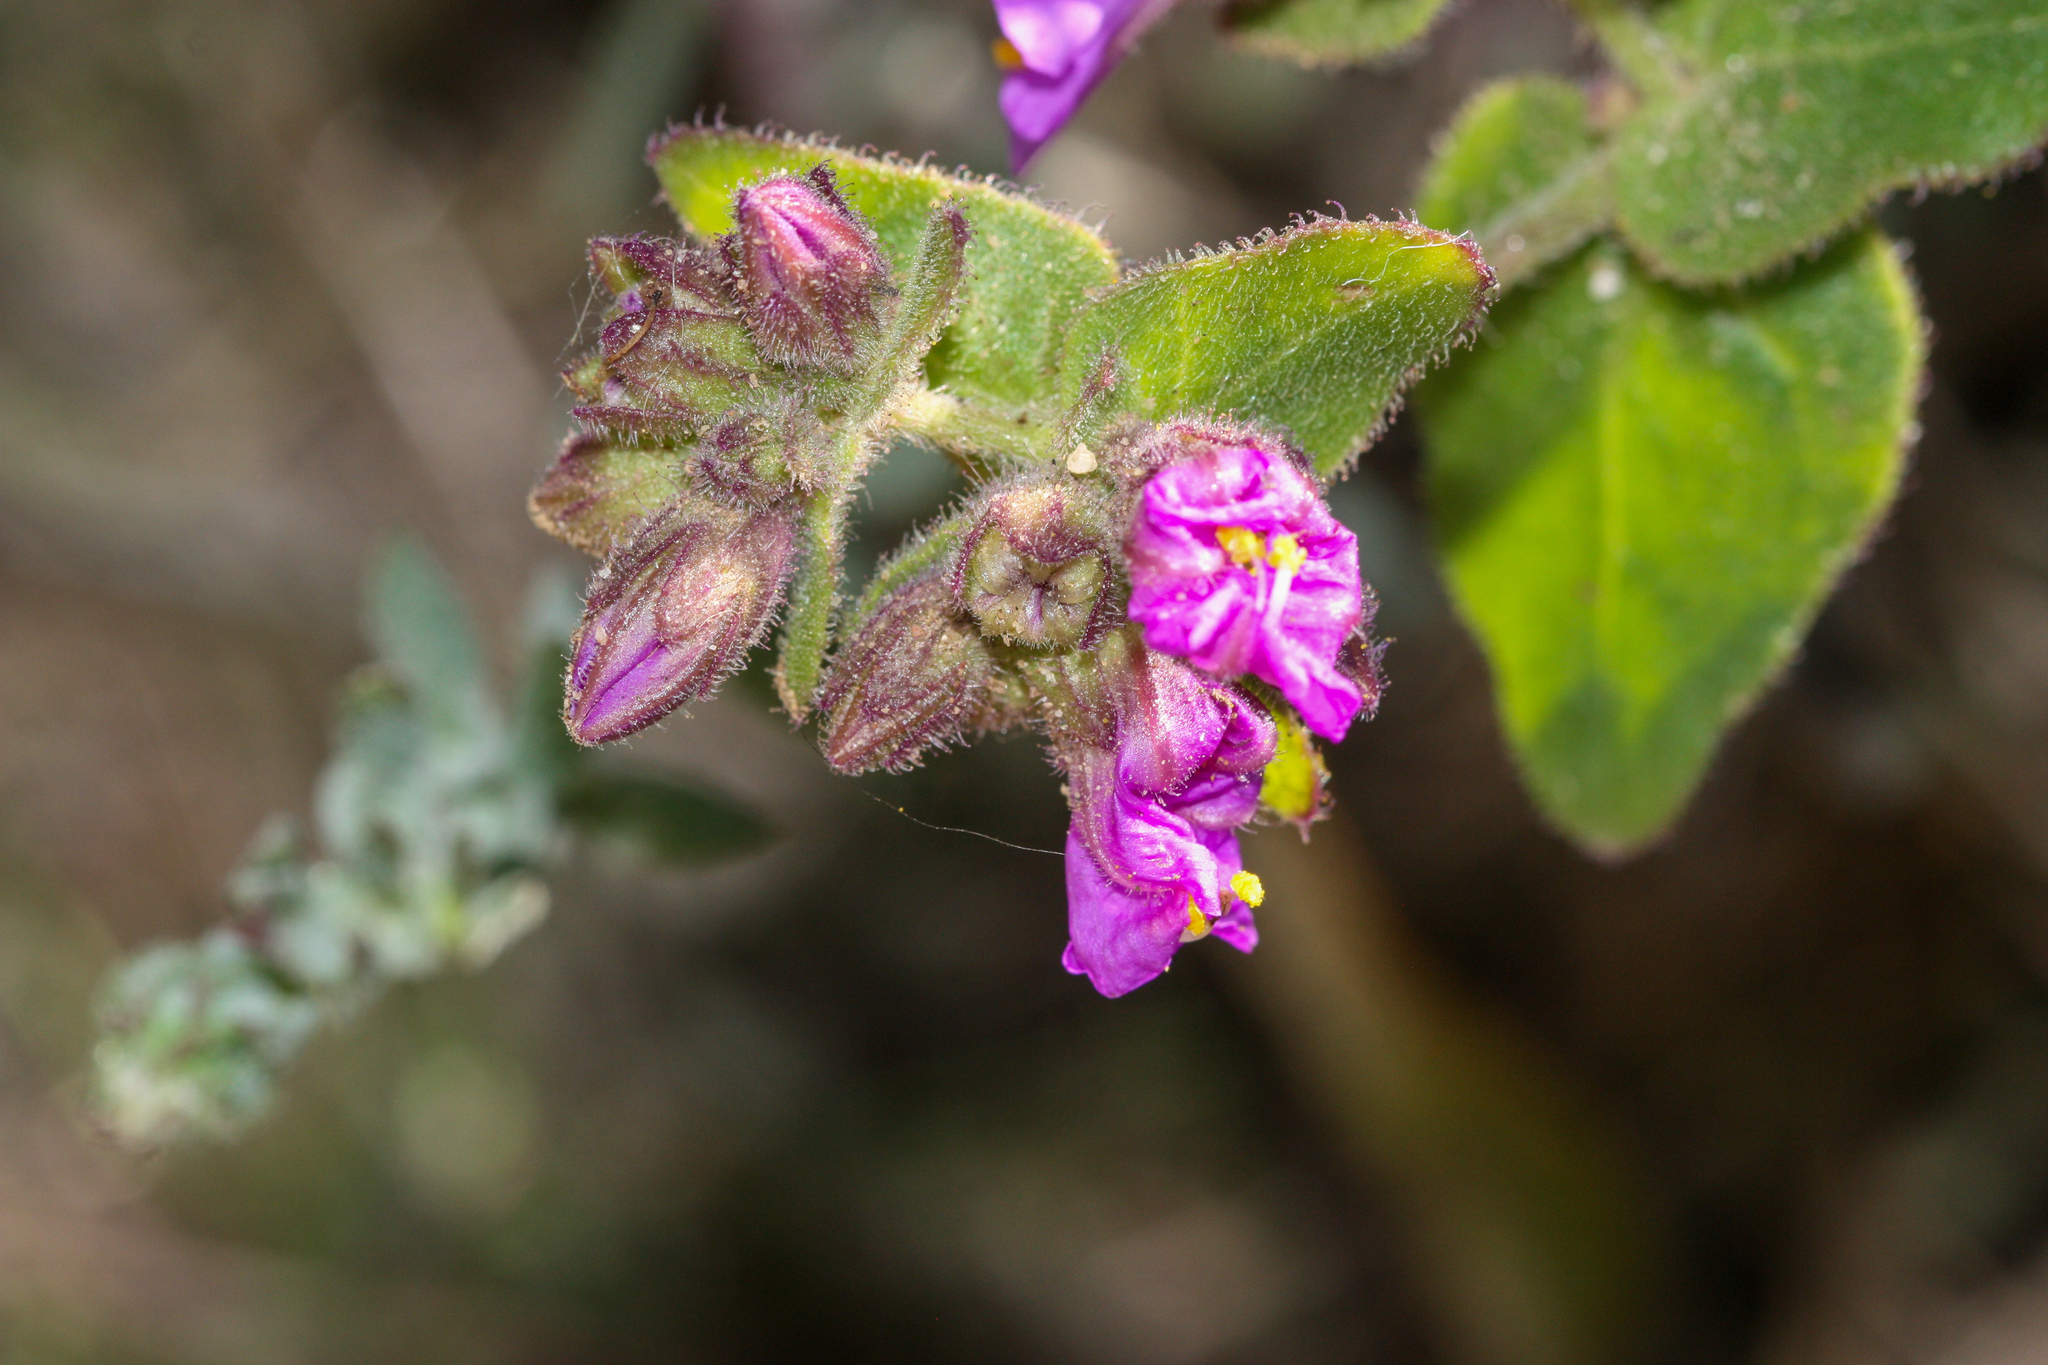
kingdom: Plantae
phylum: Tracheophyta
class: Magnoliopsida
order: Caryophyllales
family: Nyctaginaceae
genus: Mirabilis
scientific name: Mirabilis laevis
